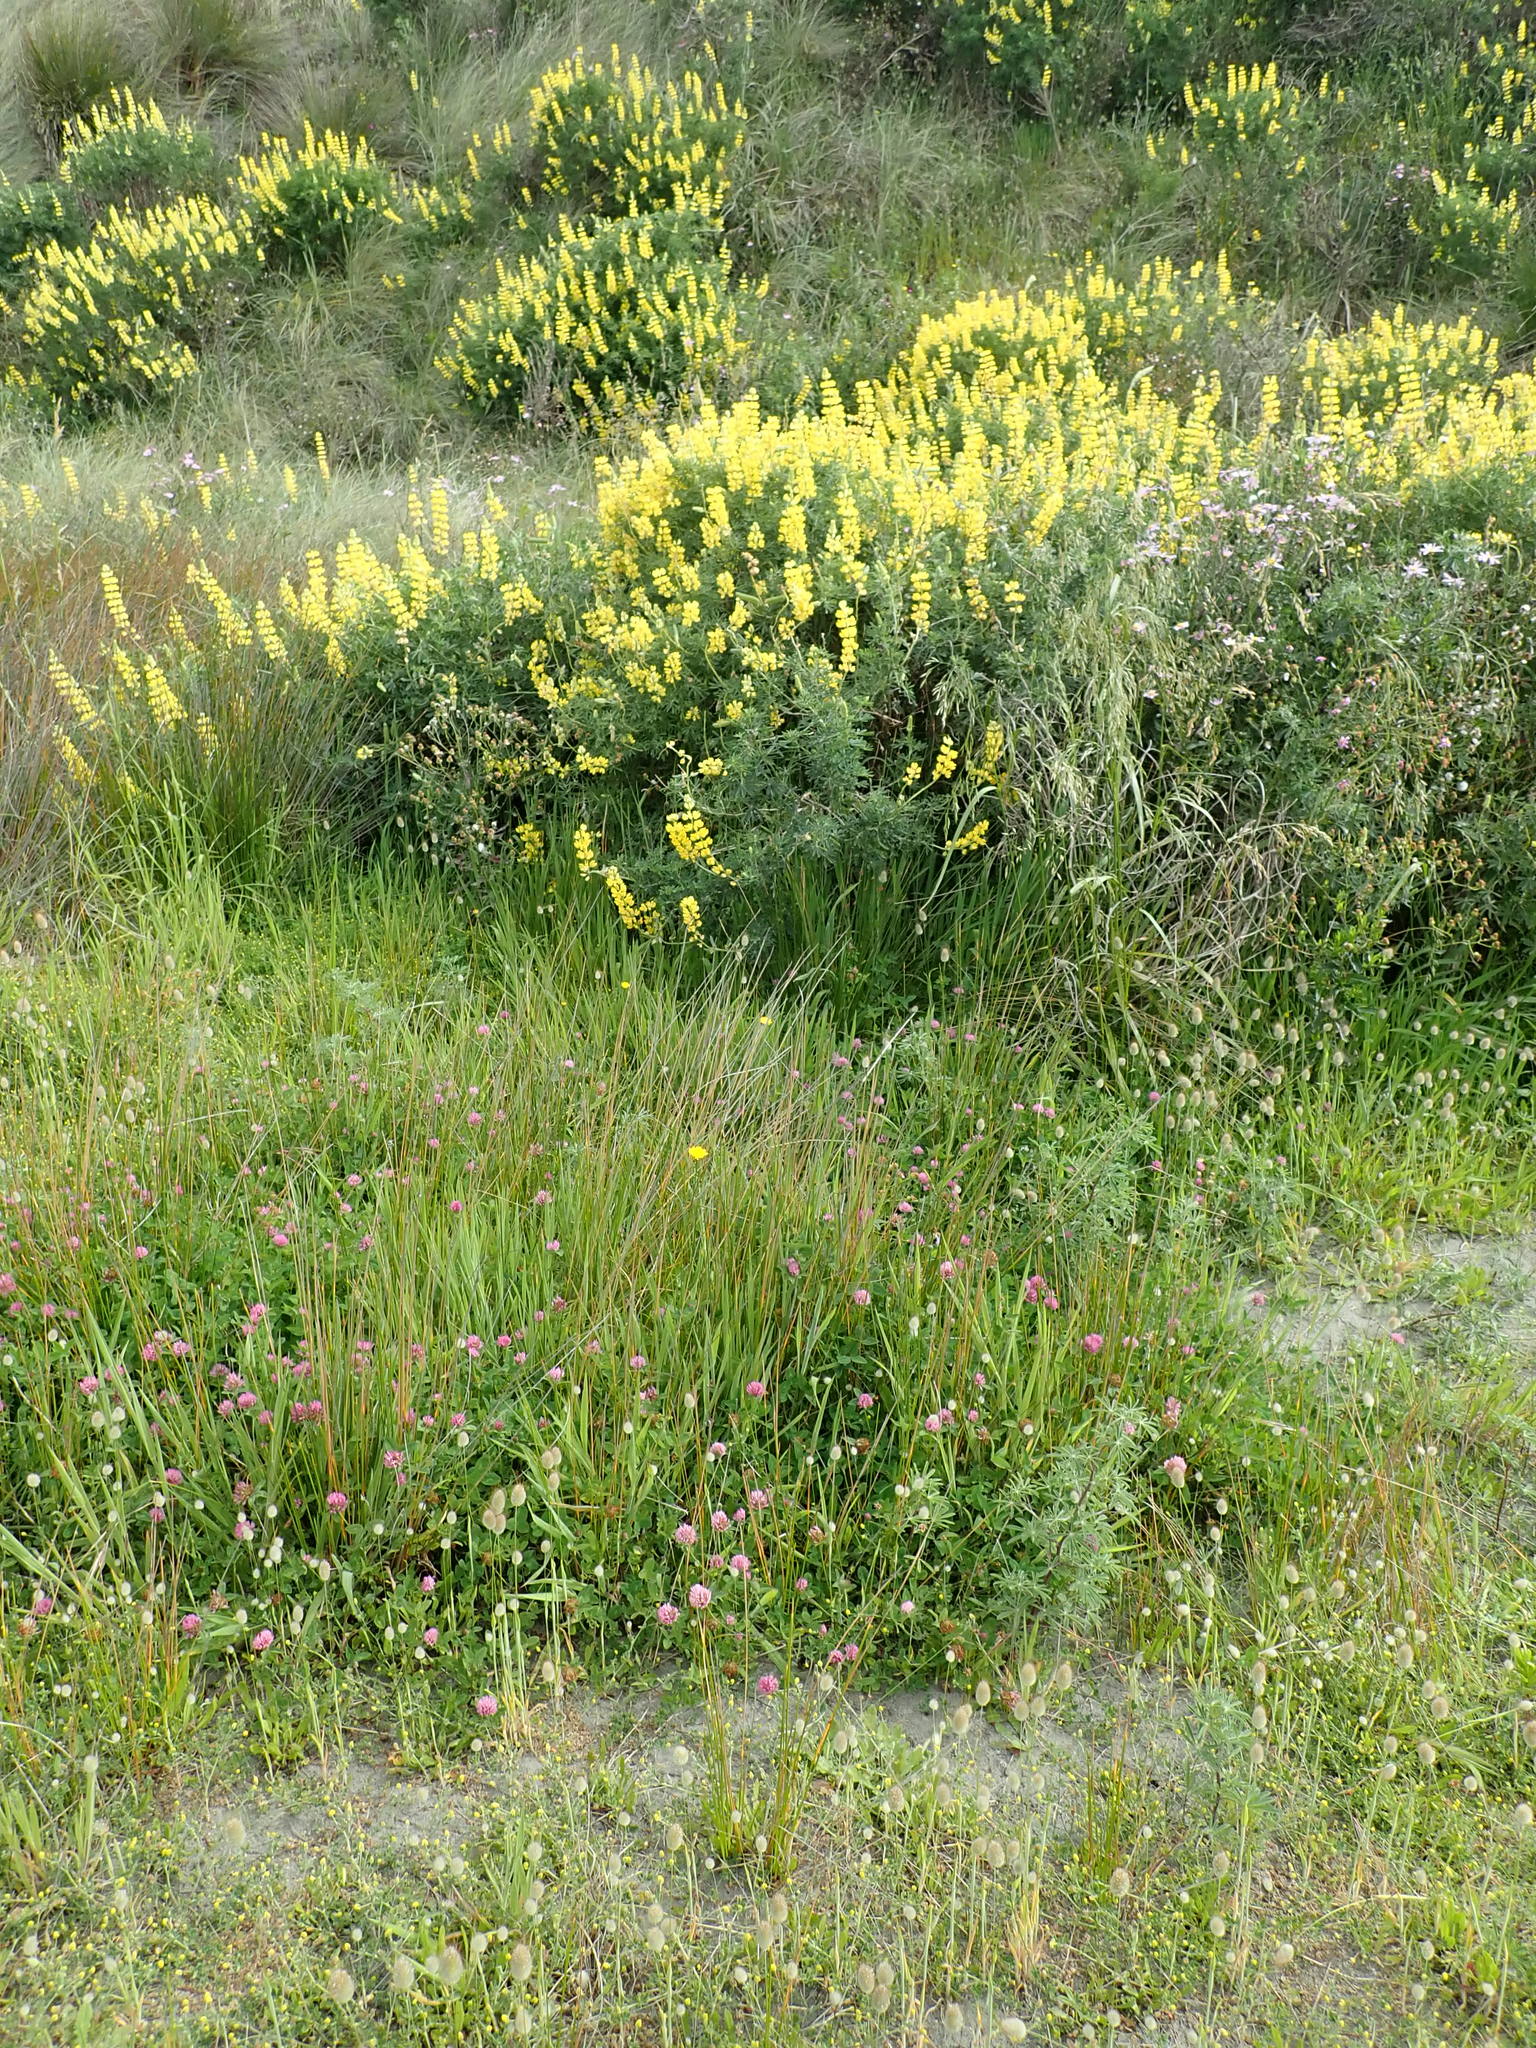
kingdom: Plantae
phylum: Tracheophyta
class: Magnoliopsida
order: Fabales
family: Fabaceae
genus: Trifolium
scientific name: Trifolium pratense
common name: Red clover
